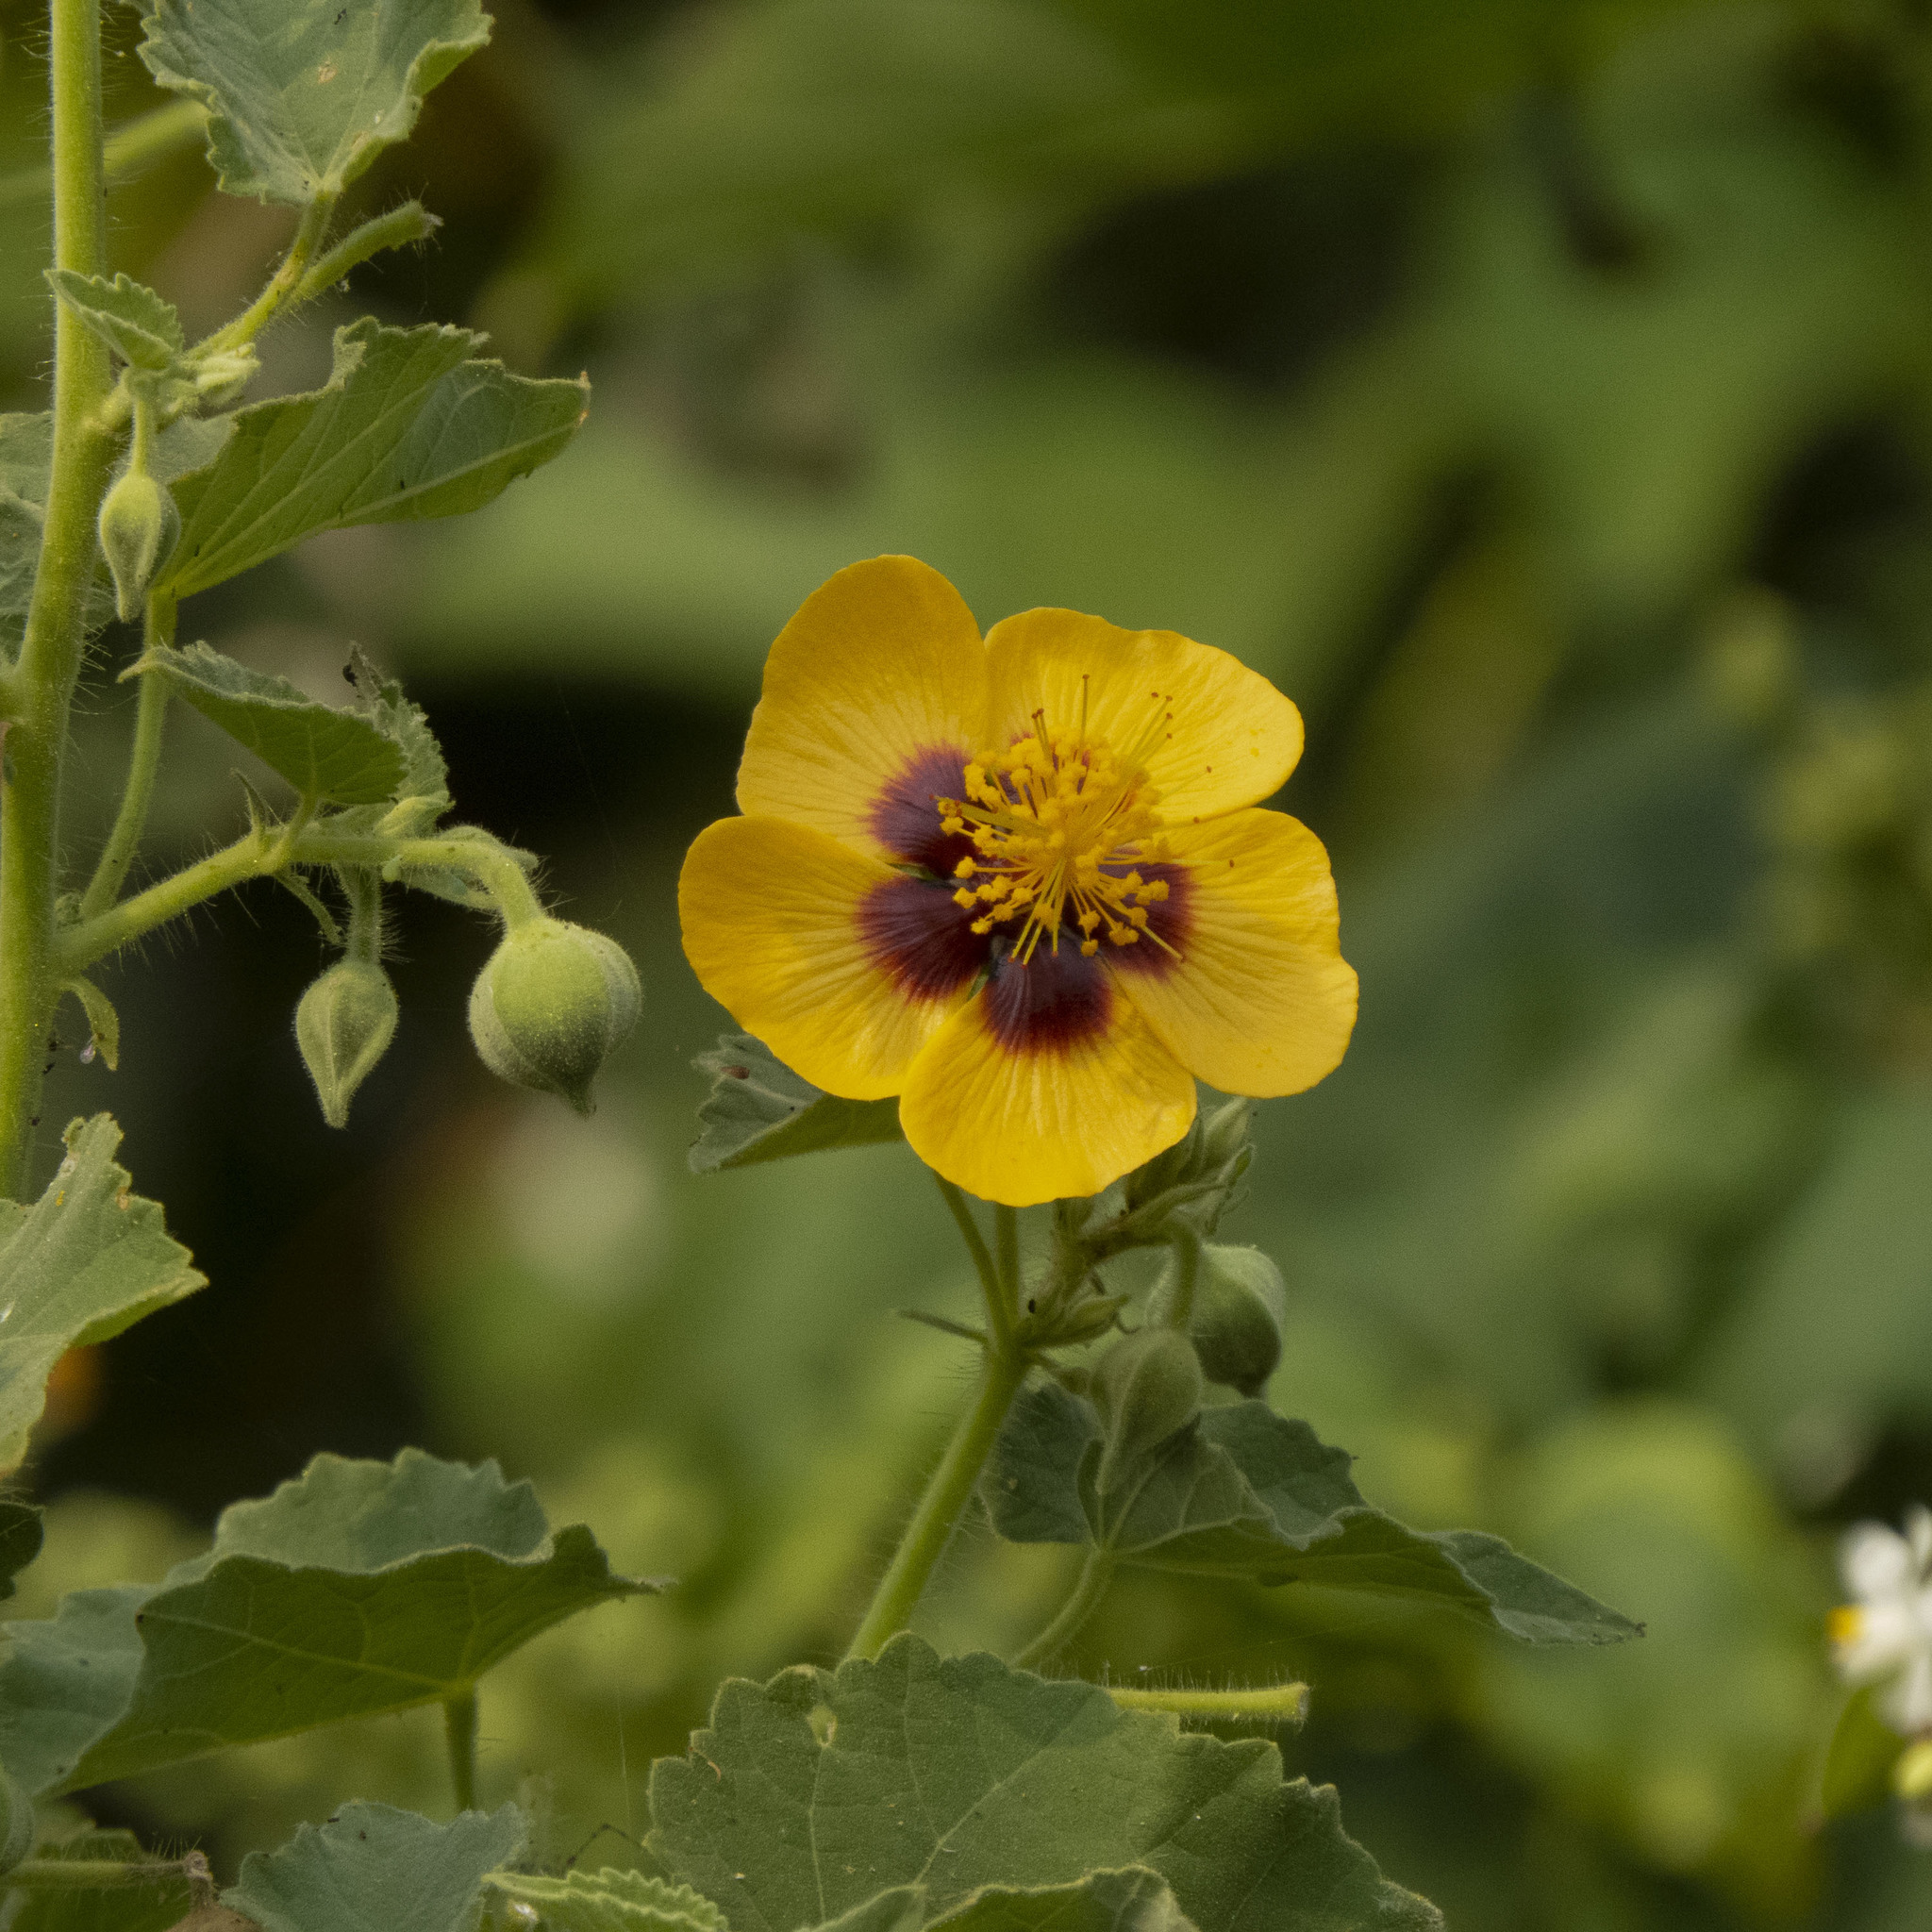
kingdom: Plantae
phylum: Tracheophyta
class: Magnoliopsida
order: Malvales
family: Malvaceae
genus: Abutilon
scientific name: Abutilon hirtum
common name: Florida keys indian mallow
